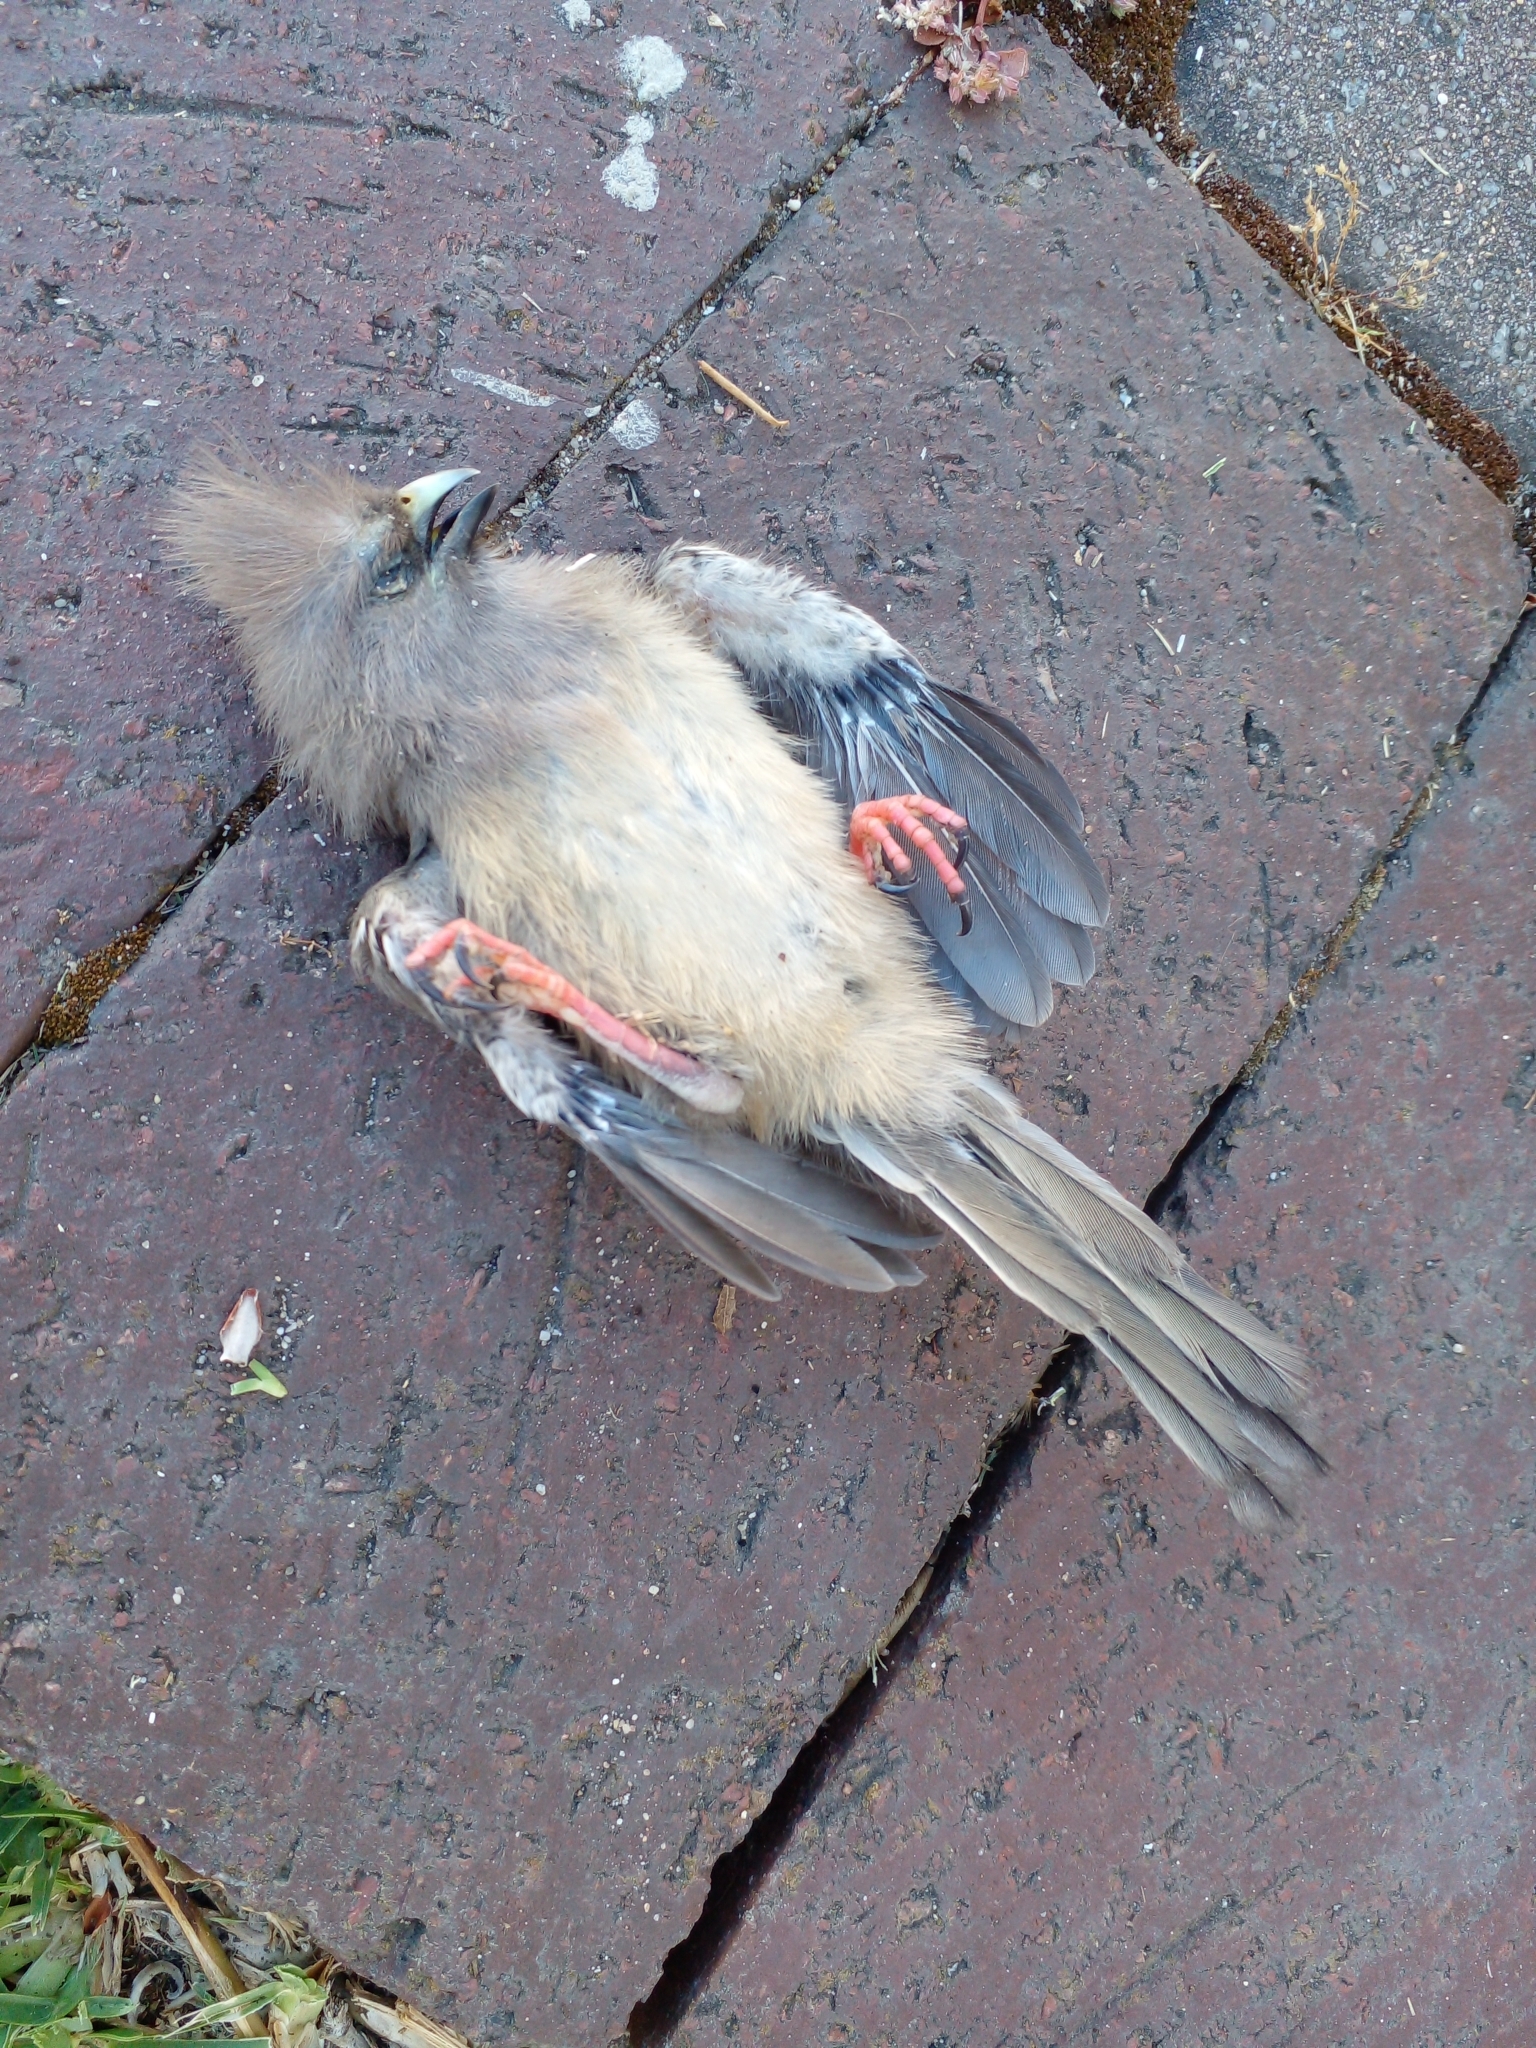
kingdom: Animalia
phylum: Chordata
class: Aves
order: Coliiformes
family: Coliidae
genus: Colius
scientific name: Colius colius
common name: White-backed mousebird
